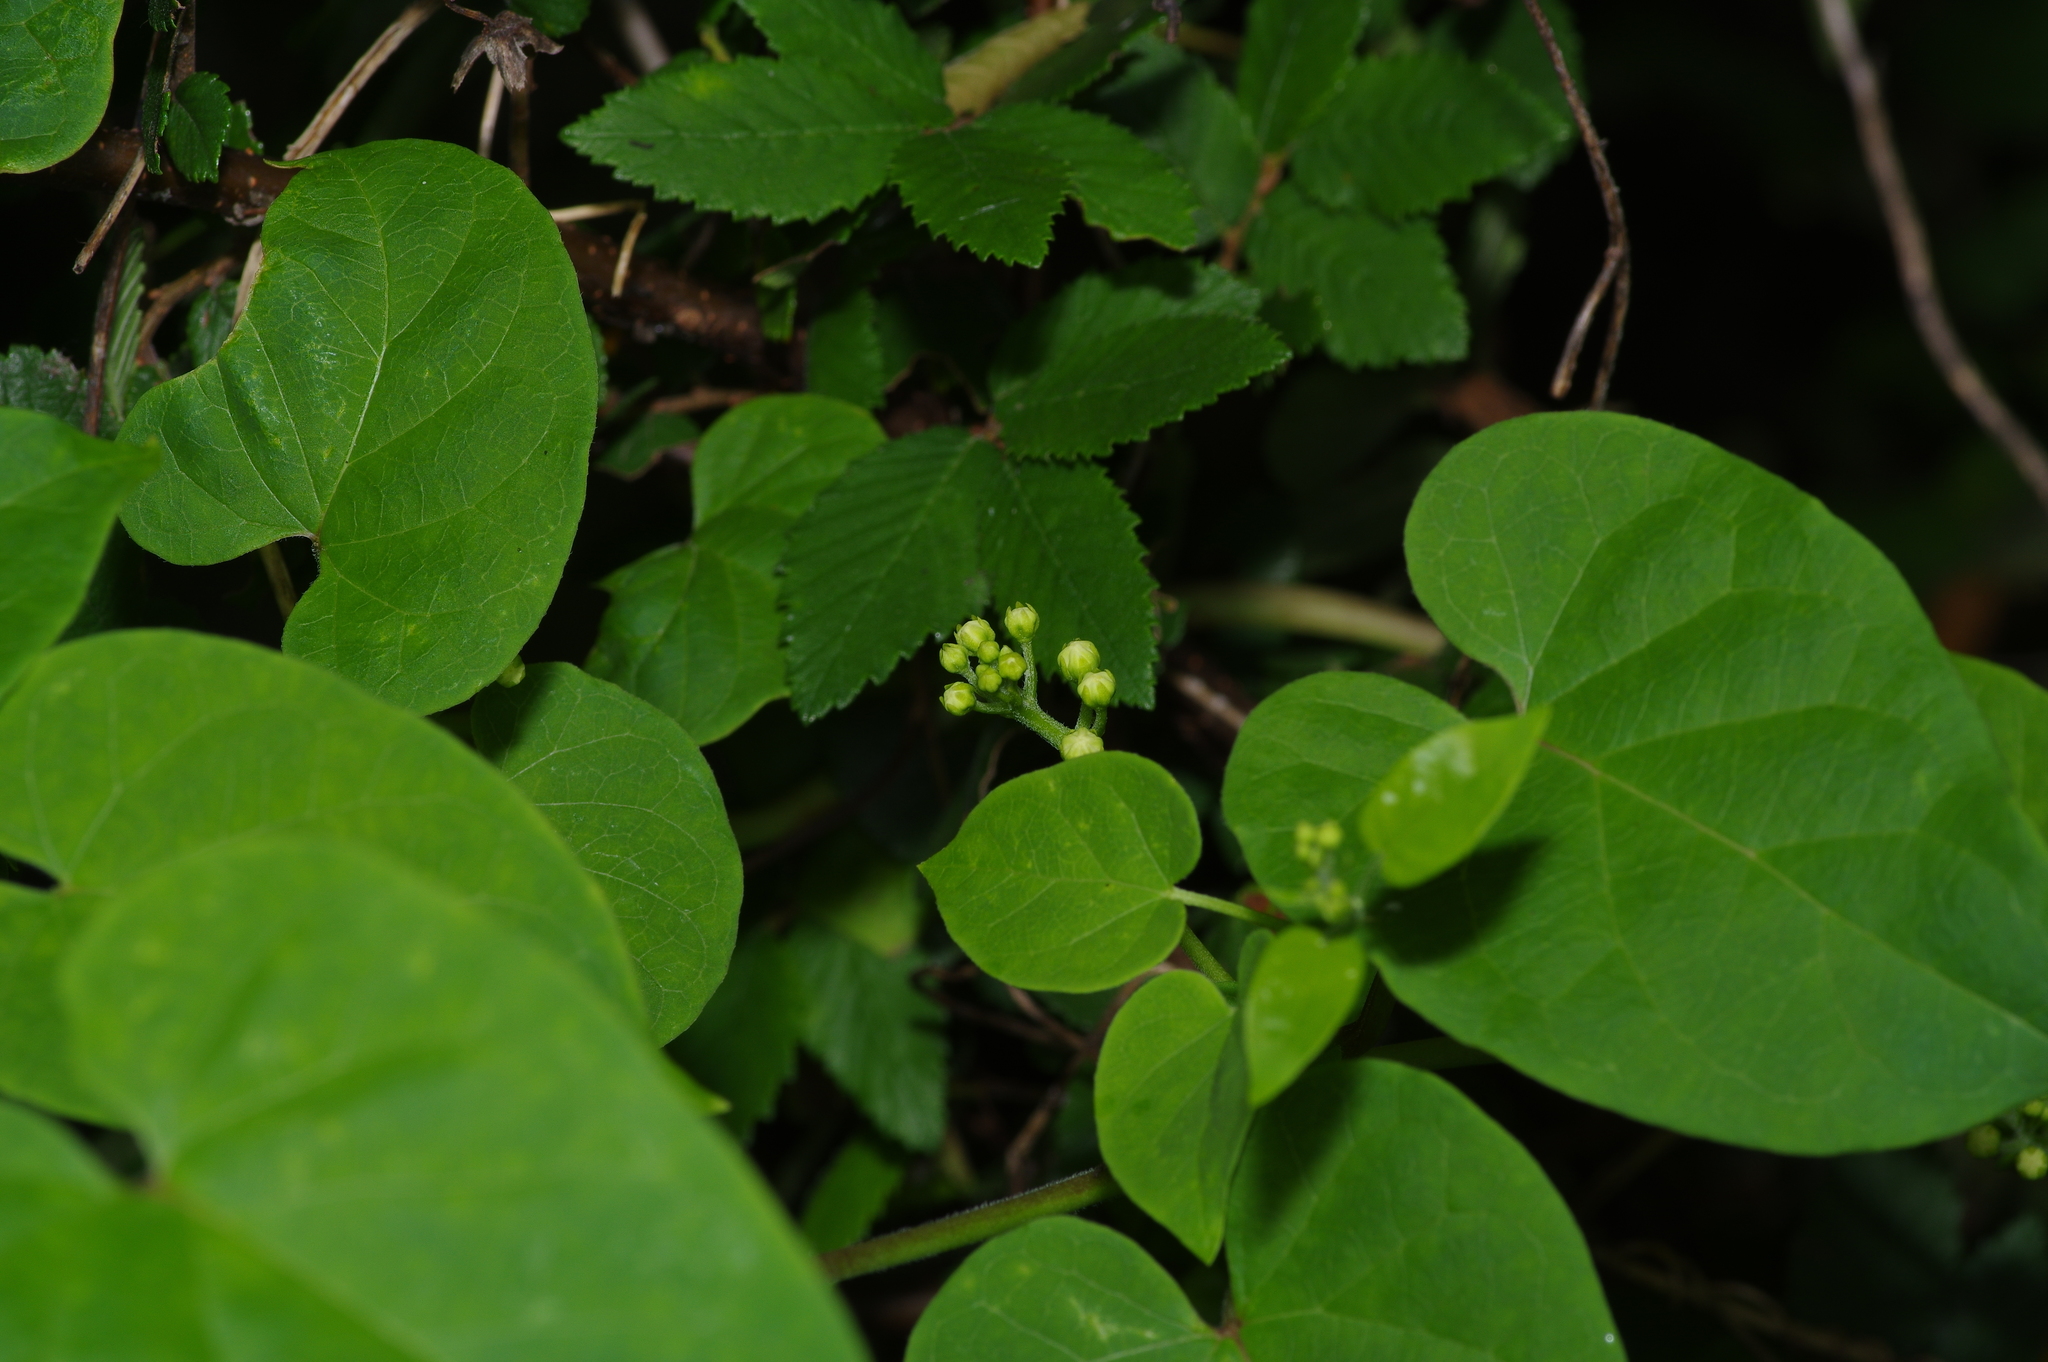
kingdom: Plantae
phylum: Tracheophyta
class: Magnoliopsida
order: Gentianales
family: Apocynaceae
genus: Cynanchum
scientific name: Cynanchum racemosum
